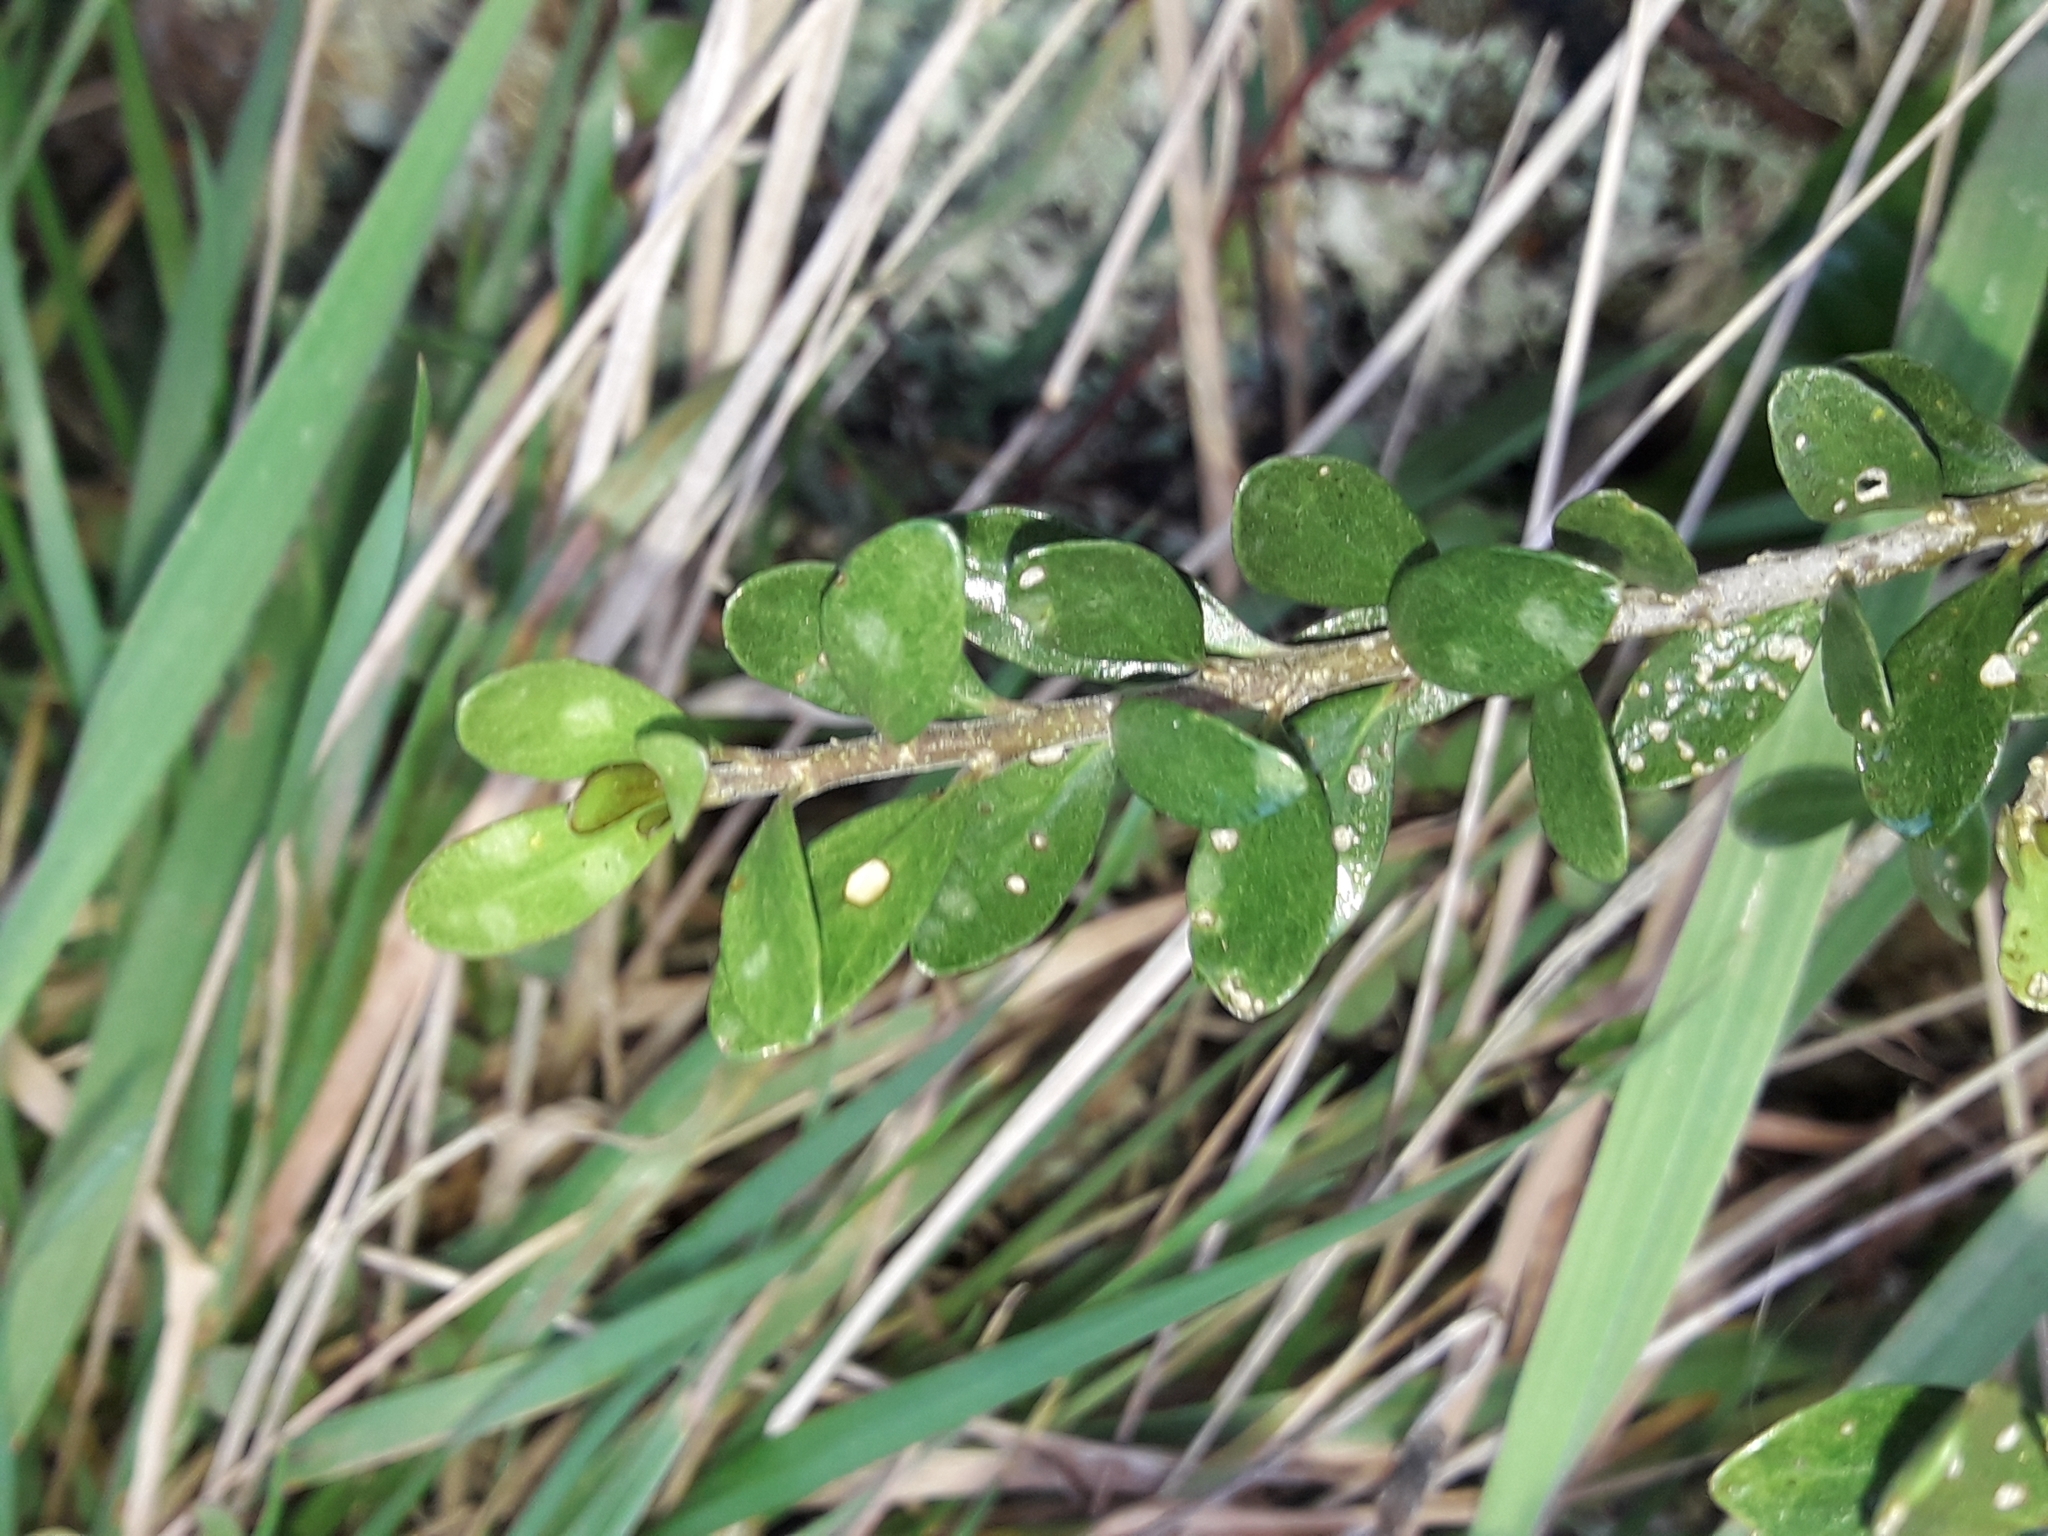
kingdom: Plantae
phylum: Tracheophyta
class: Magnoliopsida
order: Malpighiales
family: Violaceae
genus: Melicytus
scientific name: Melicytus crassifolius
